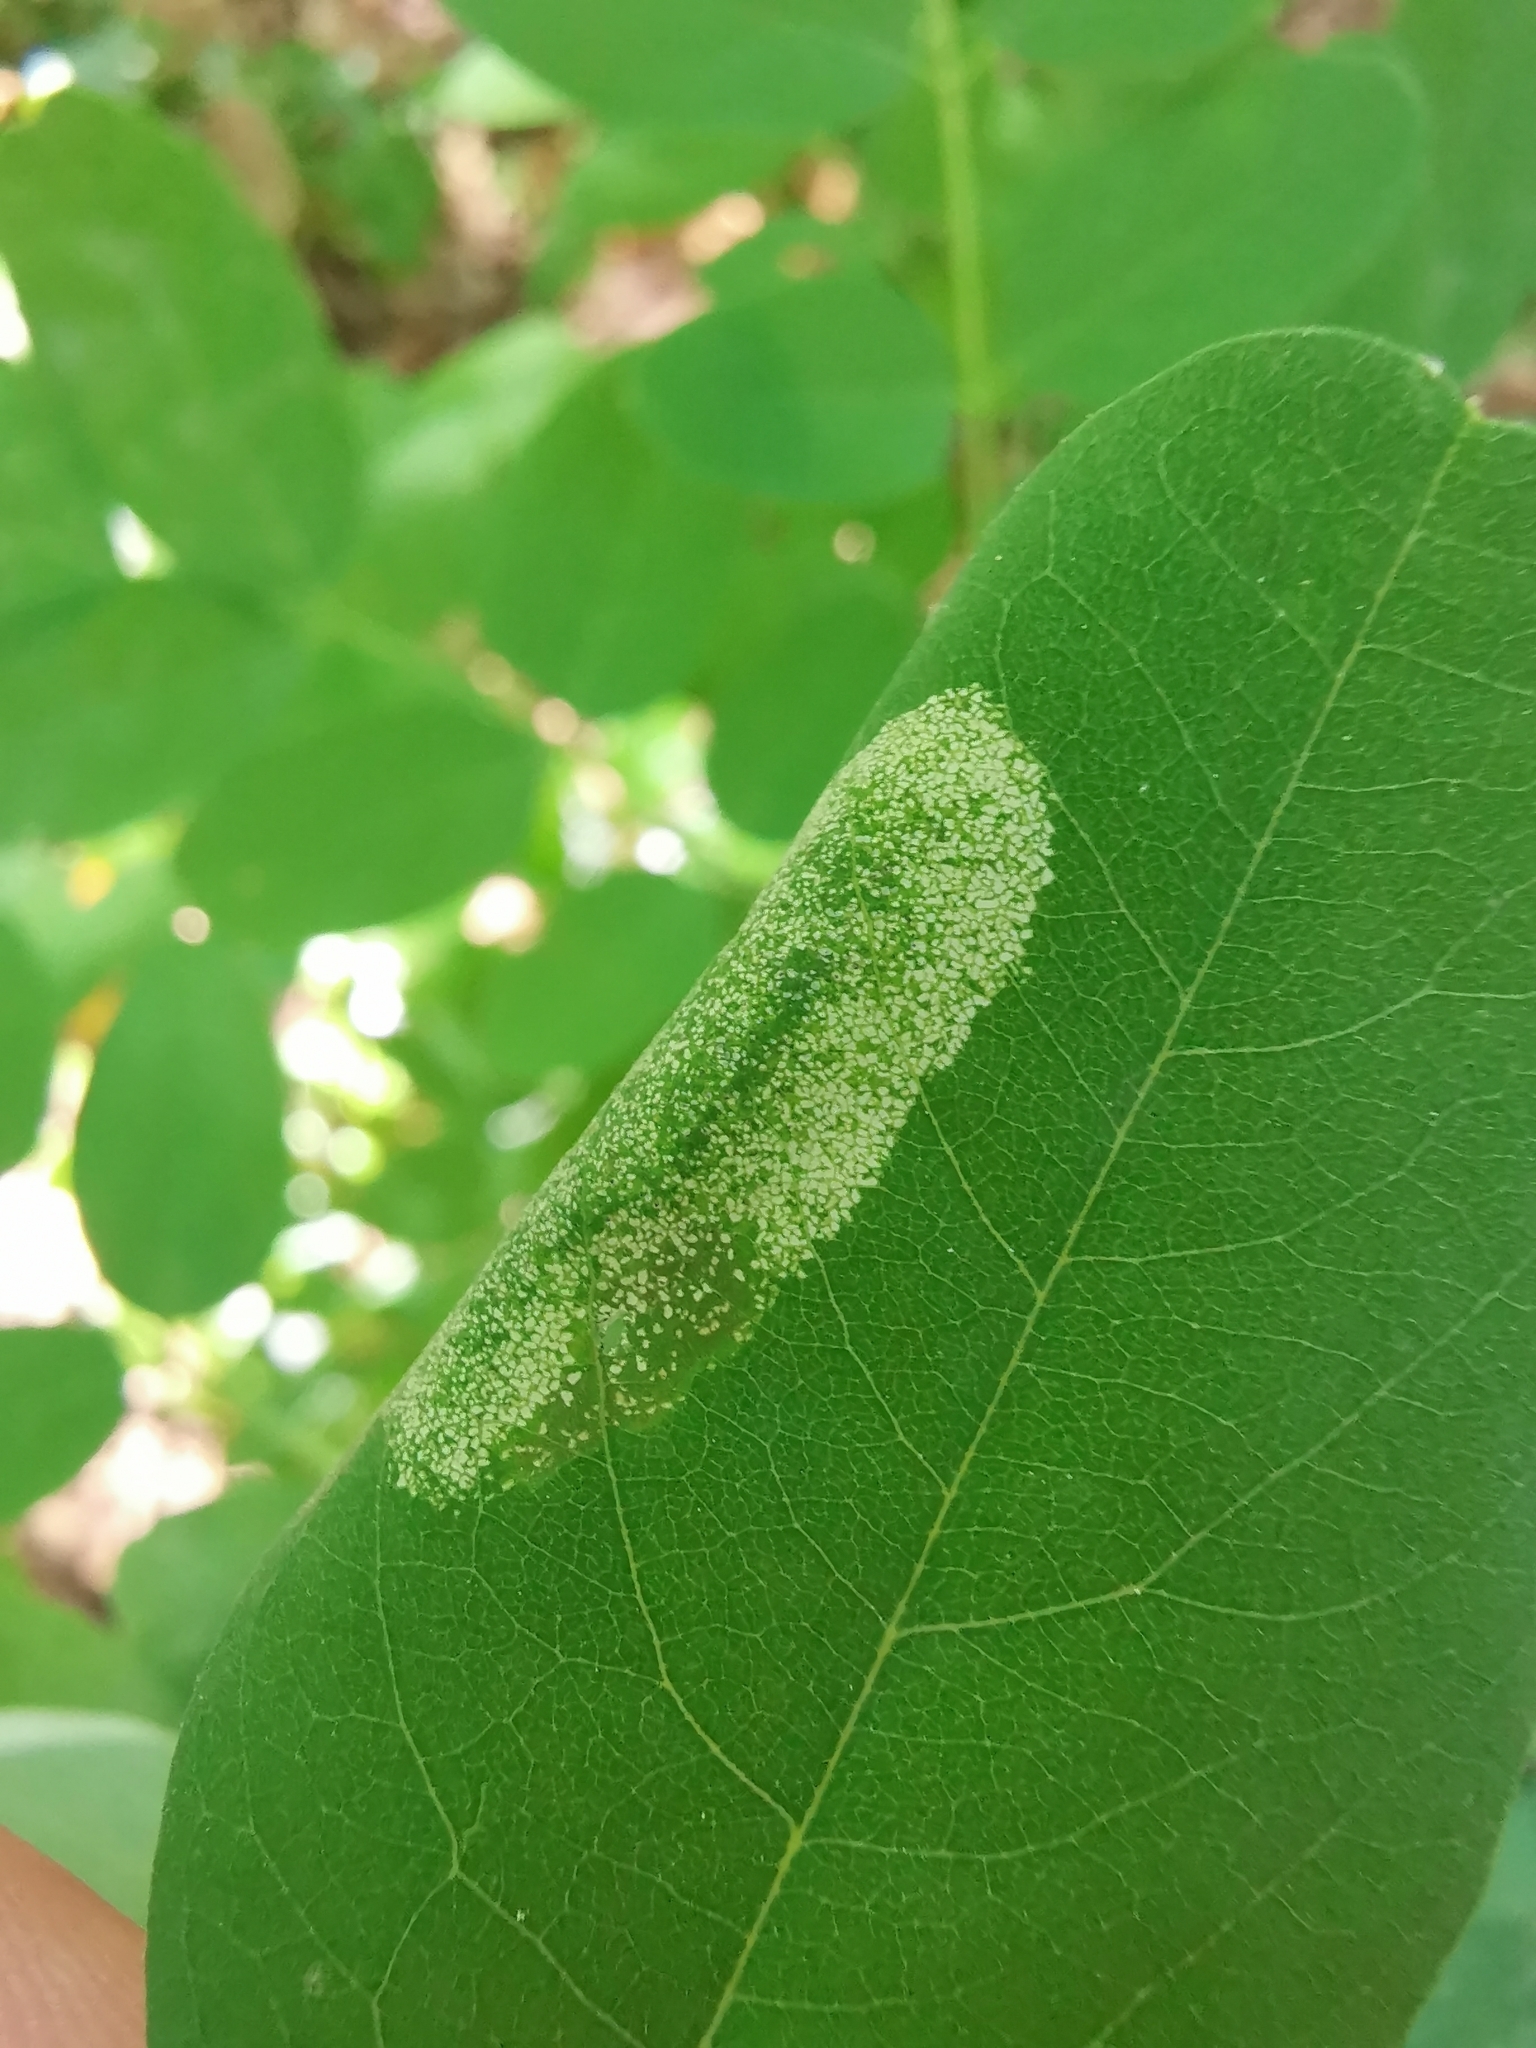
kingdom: Animalia
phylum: Arthropoda
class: Insecta
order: Lepidoptera
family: Gracillariidae
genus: Macrosaccus
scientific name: Macrosaccus robiniella
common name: Leaf blotch miner moth
